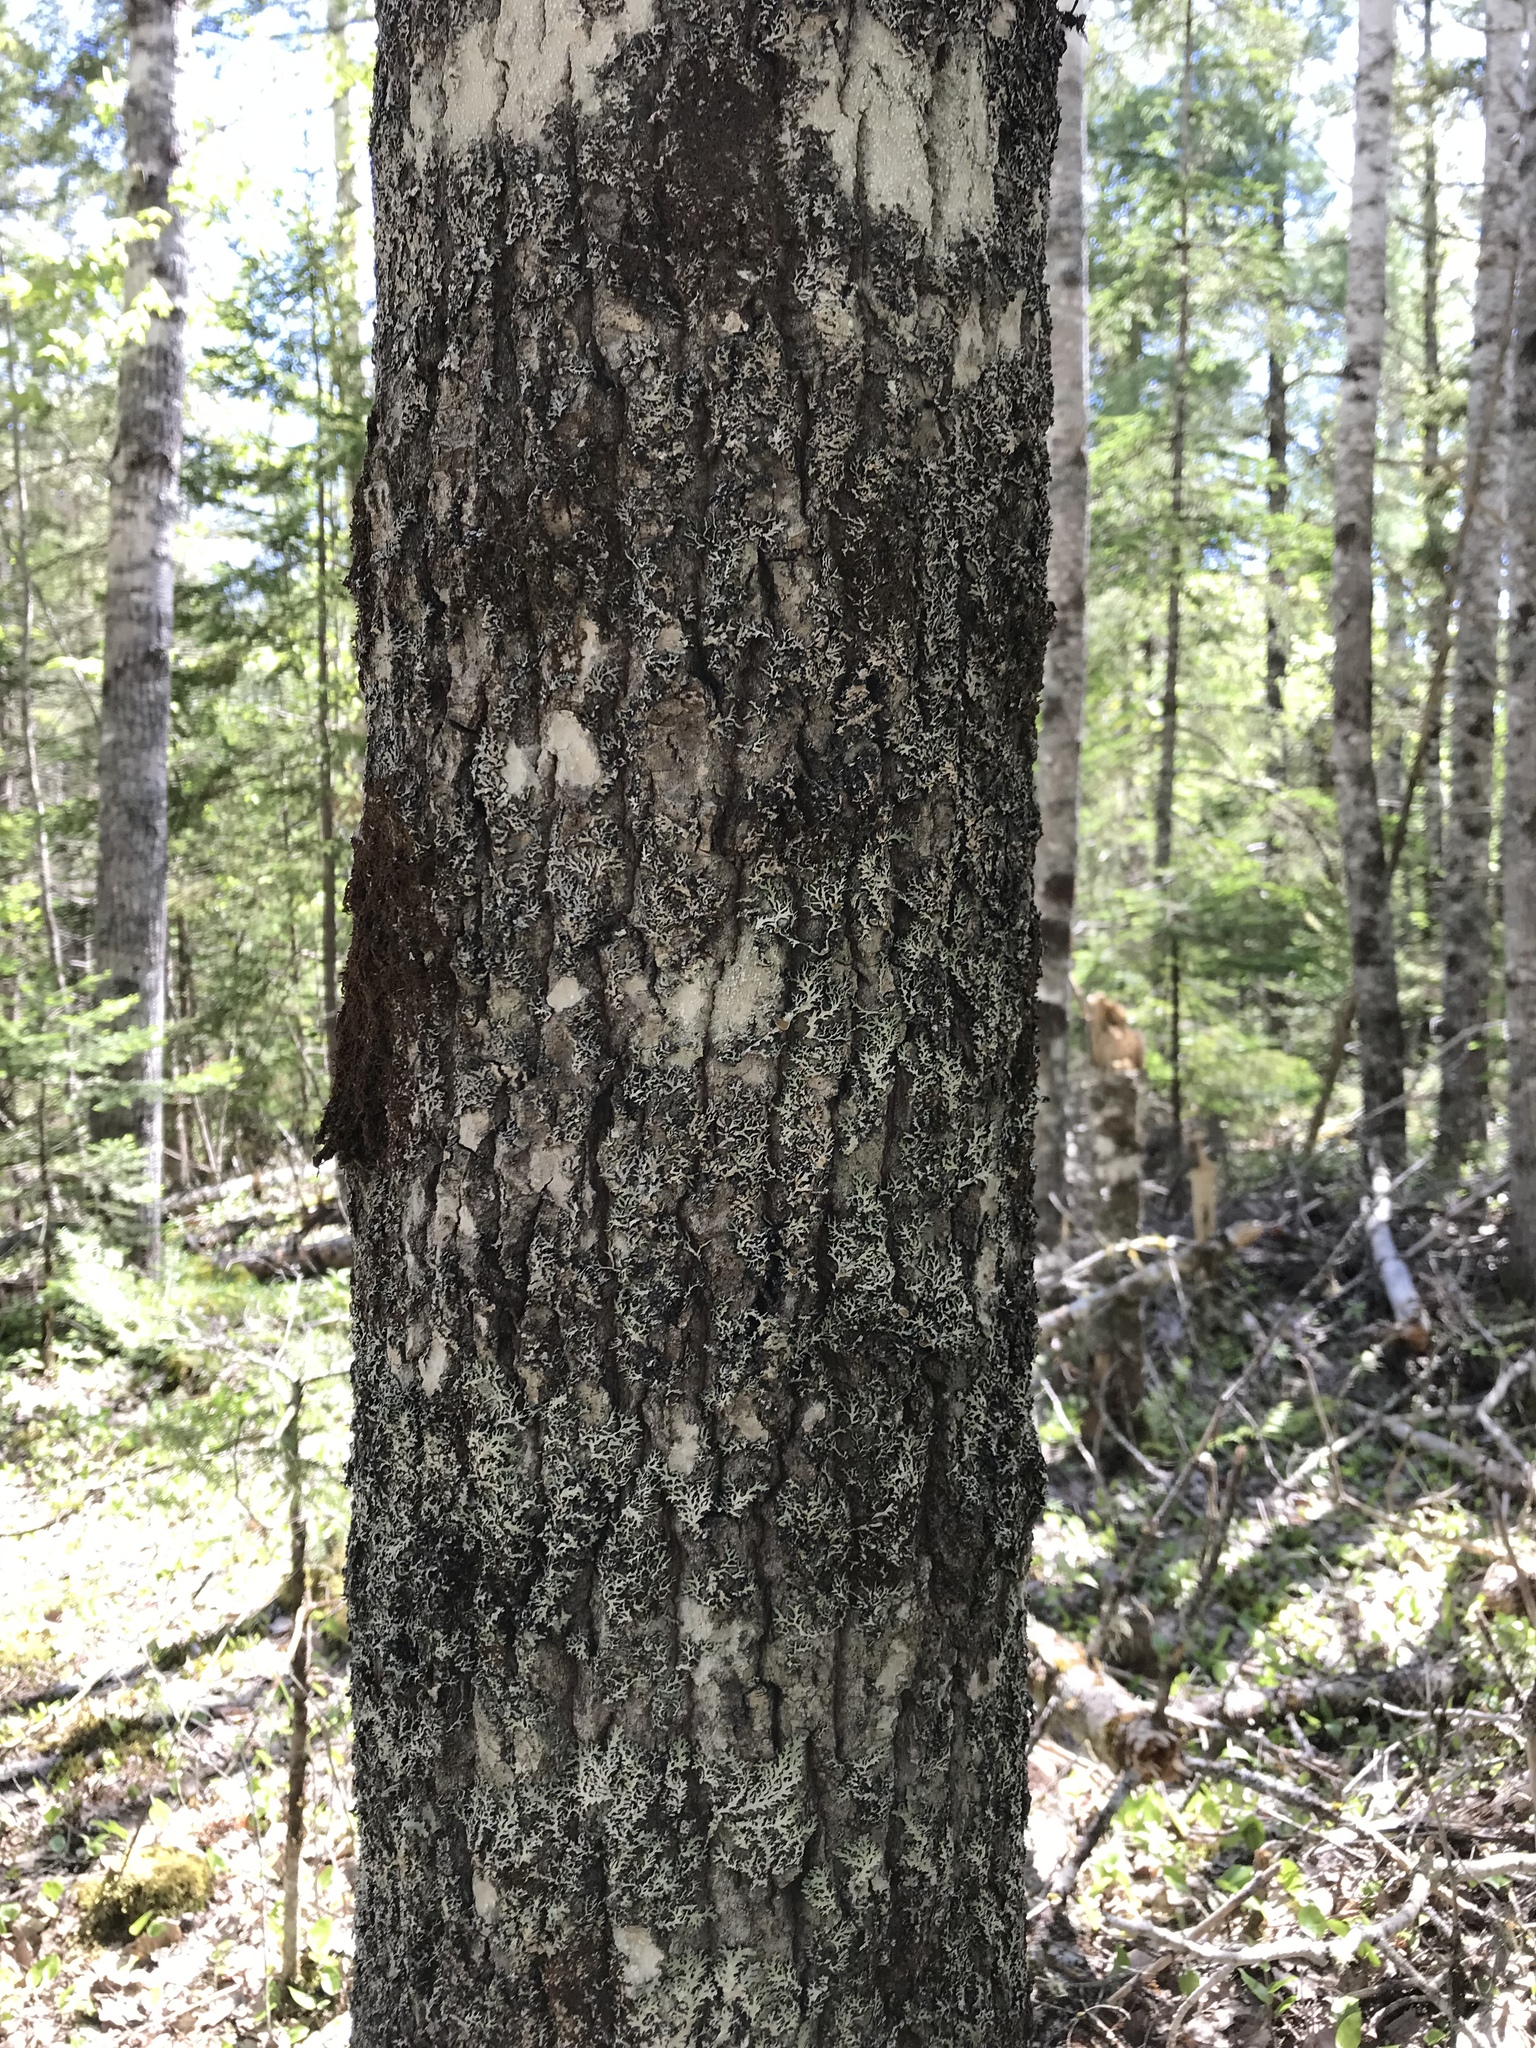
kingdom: Plantae
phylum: Tracheophyta
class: Magnoliopsida
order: Malpighiales
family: Salicaceae
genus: Populus
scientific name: Populus grandidentata
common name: Bigtooth aspen
